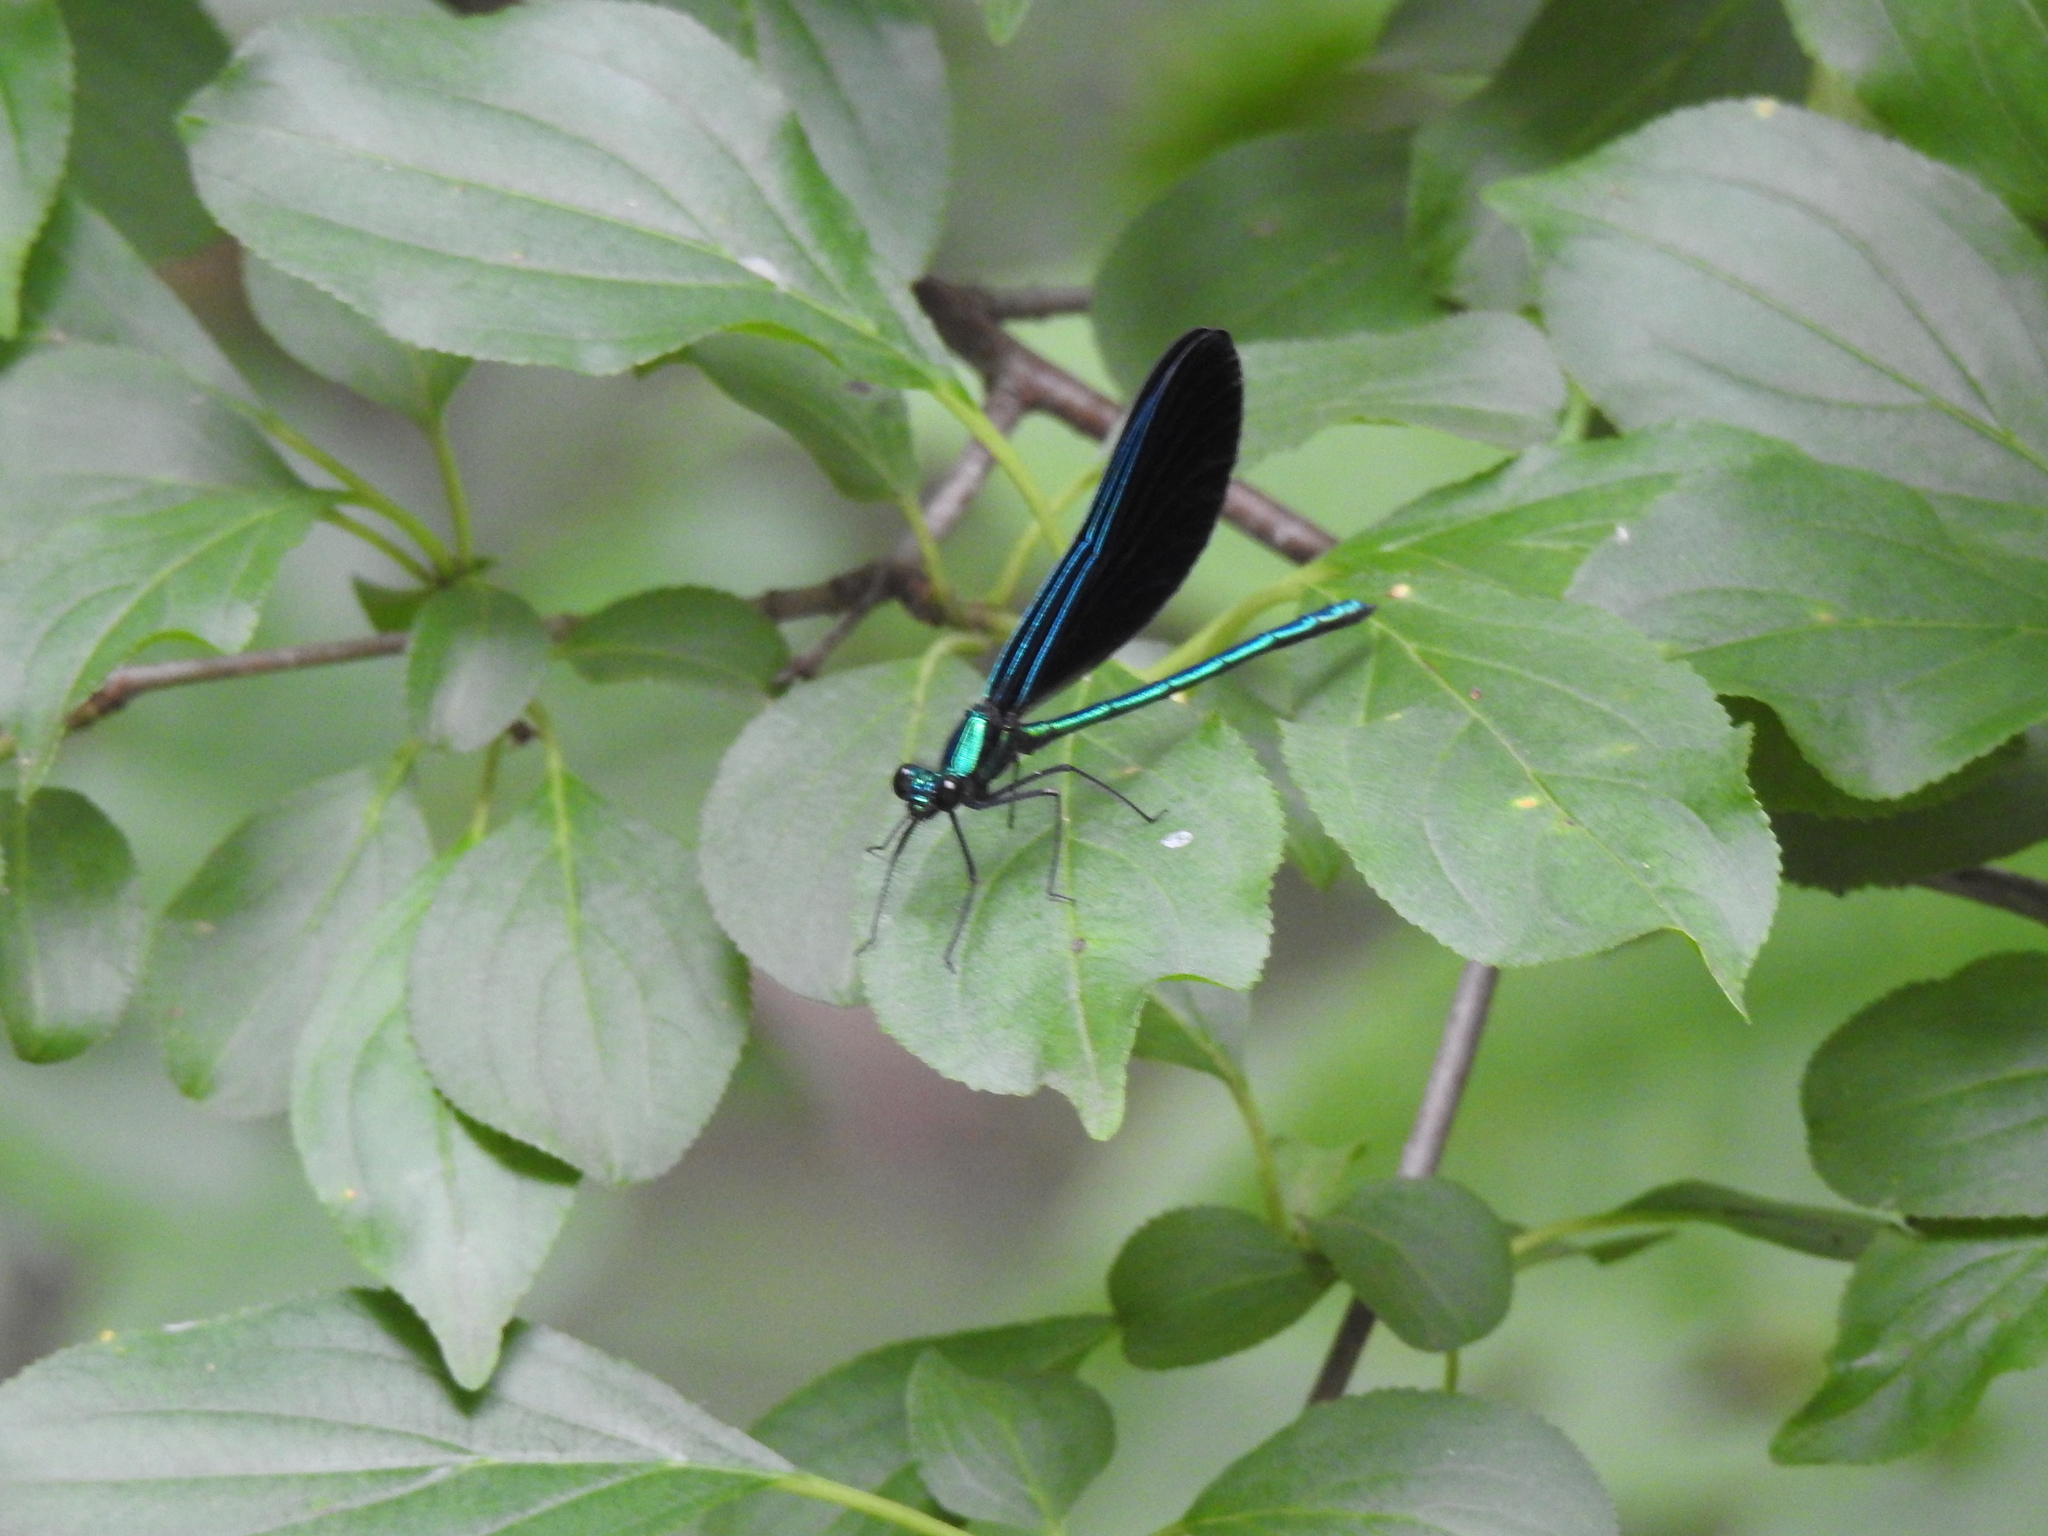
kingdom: Animalia
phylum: Arthropoda
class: Insecta
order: Odonata
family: Calopterygidae
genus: Calopteryx
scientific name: Calopteryx maculata
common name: Ebony jewelwing
